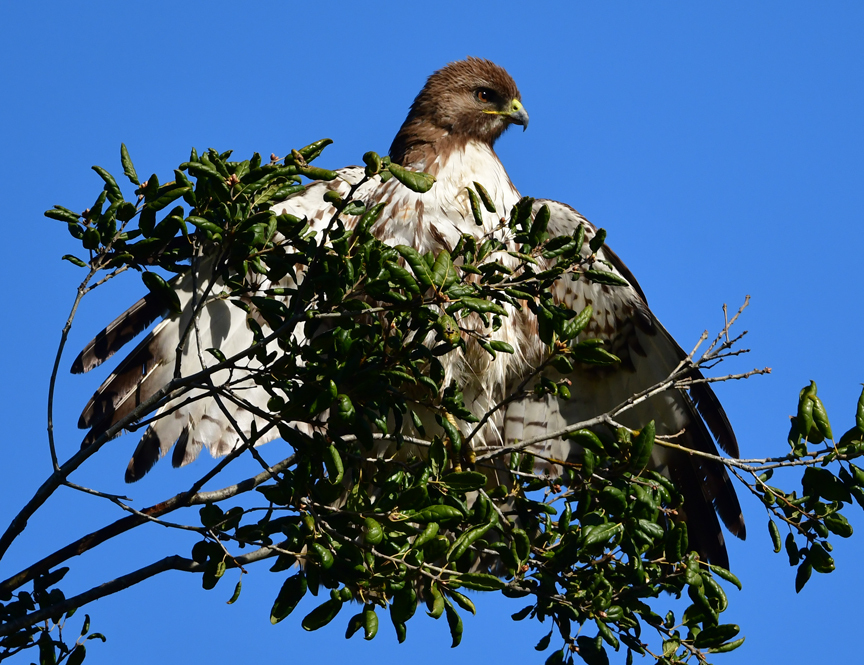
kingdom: Animalia
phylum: Chordata
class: Aves
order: Accipitriformes
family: Accipitridae
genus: Buteo
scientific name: Buteo jamaicensis
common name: Red-tailed hawk
